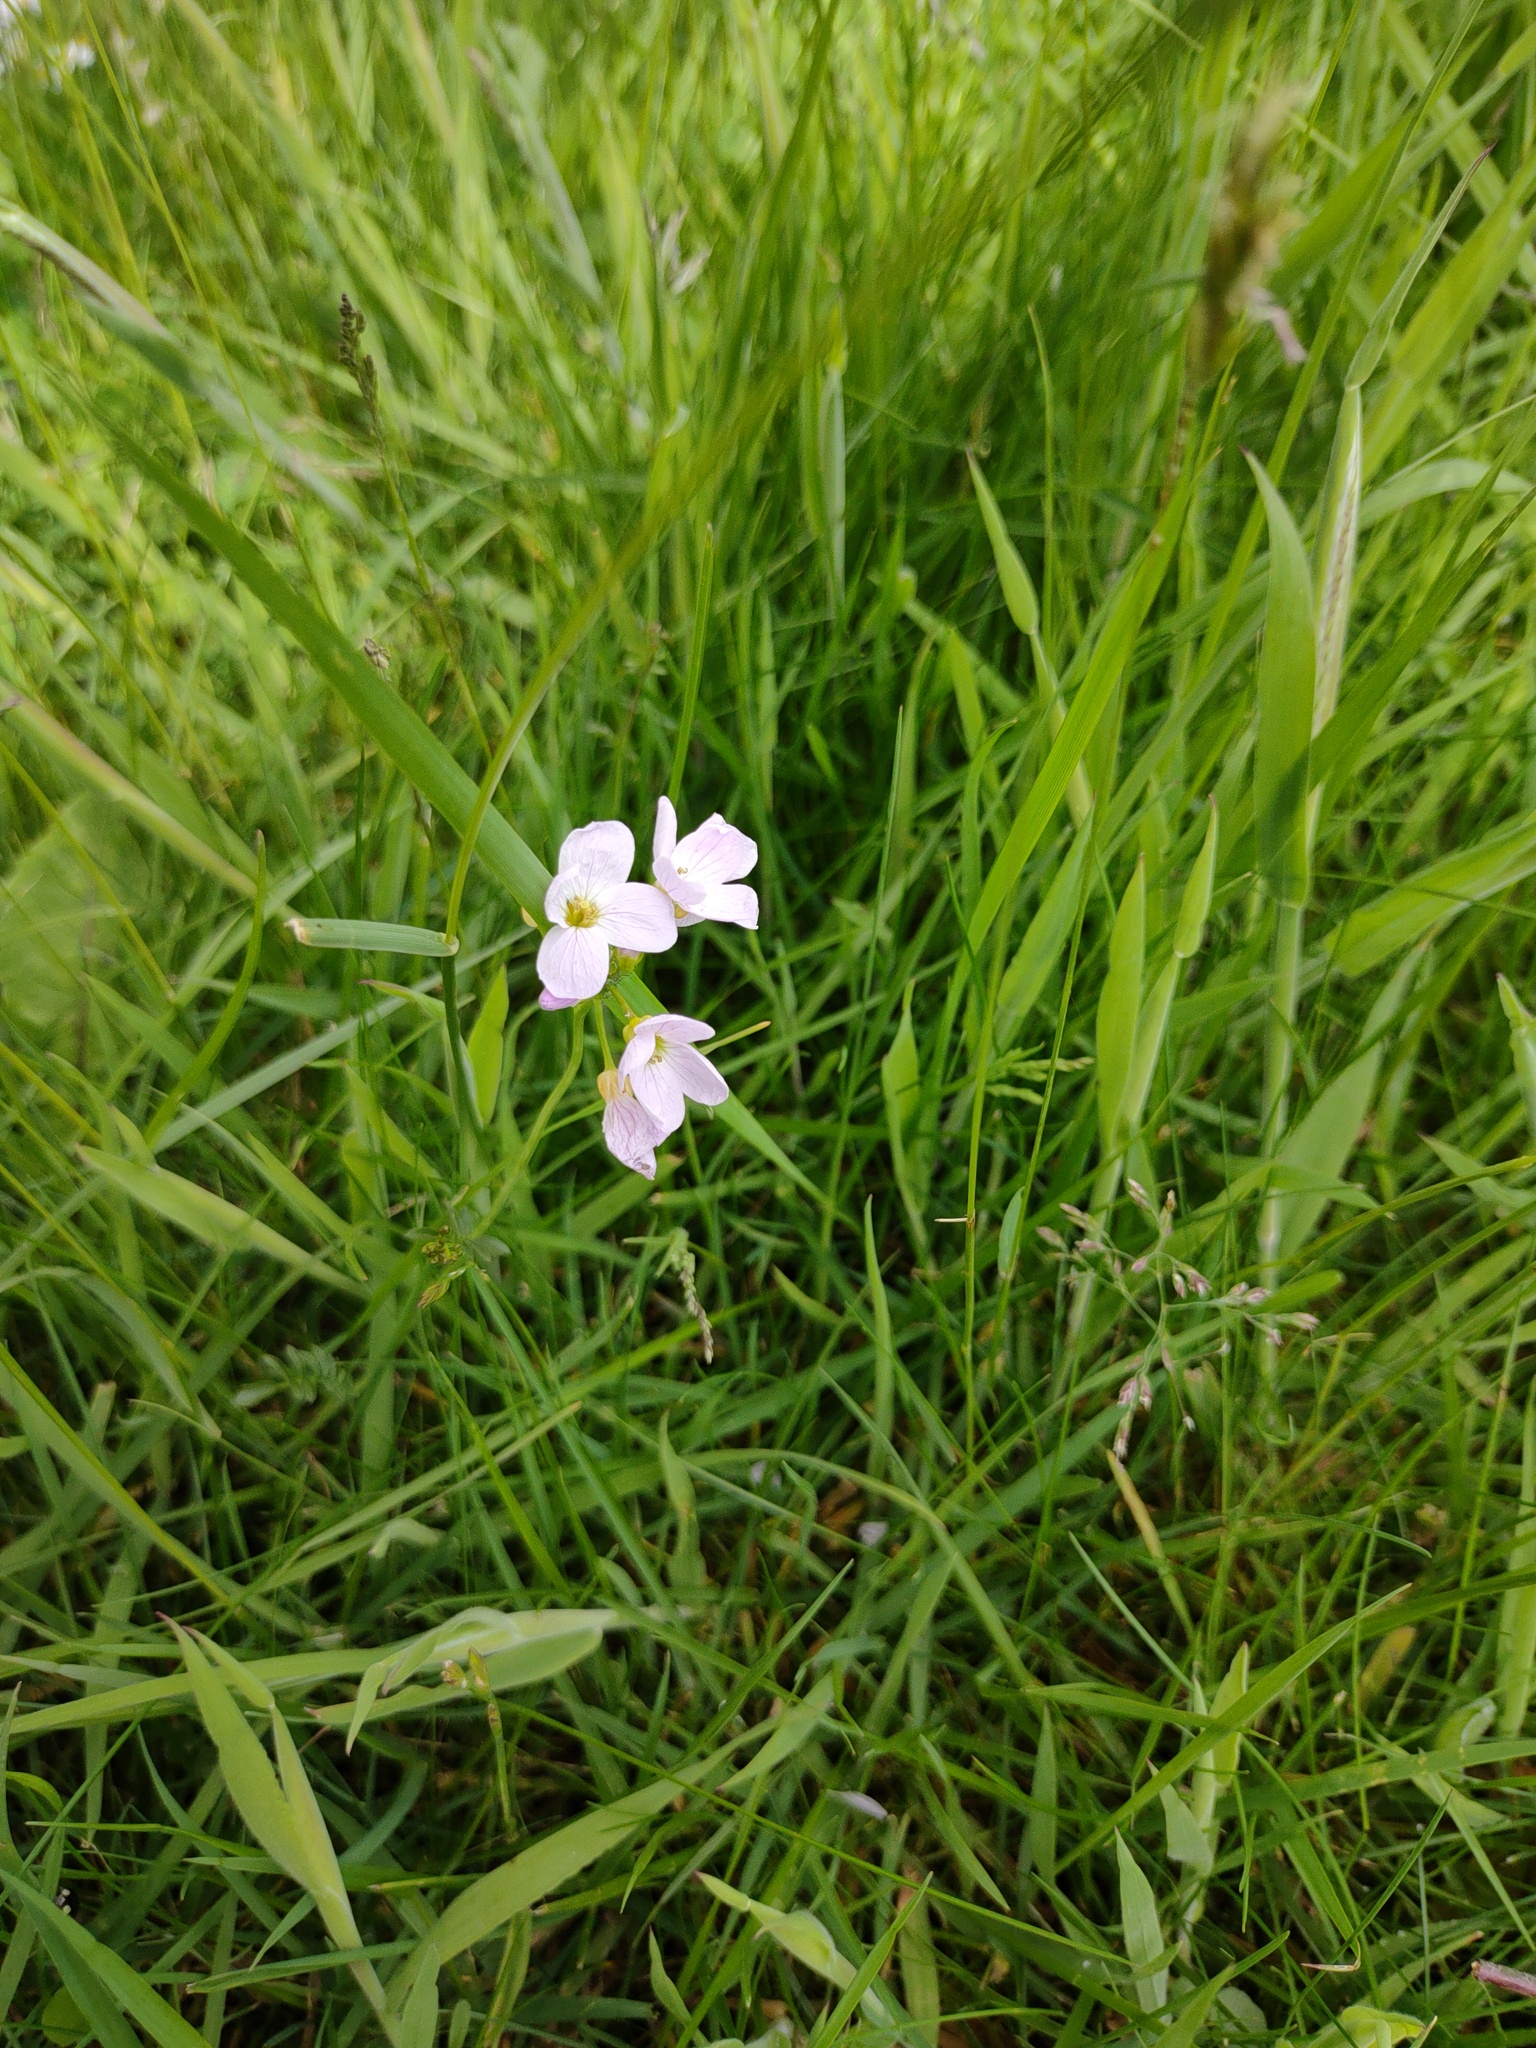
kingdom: Plantae
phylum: Tracheophyta
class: Magnoliopsida
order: Brassicales
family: Brassicaceae
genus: Cardamine
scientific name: Cardamine pratensis
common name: Cuckoo flower
